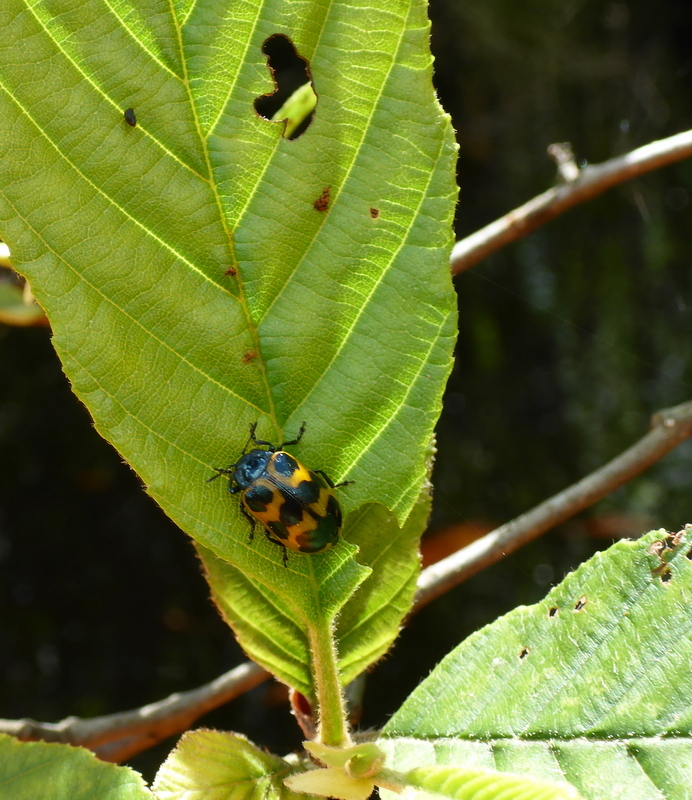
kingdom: Animalia
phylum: Arthropoda
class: Insecta
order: Coleoptera
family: Chrysomelidae
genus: Chrysomela
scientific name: Chrysomela interrupta
